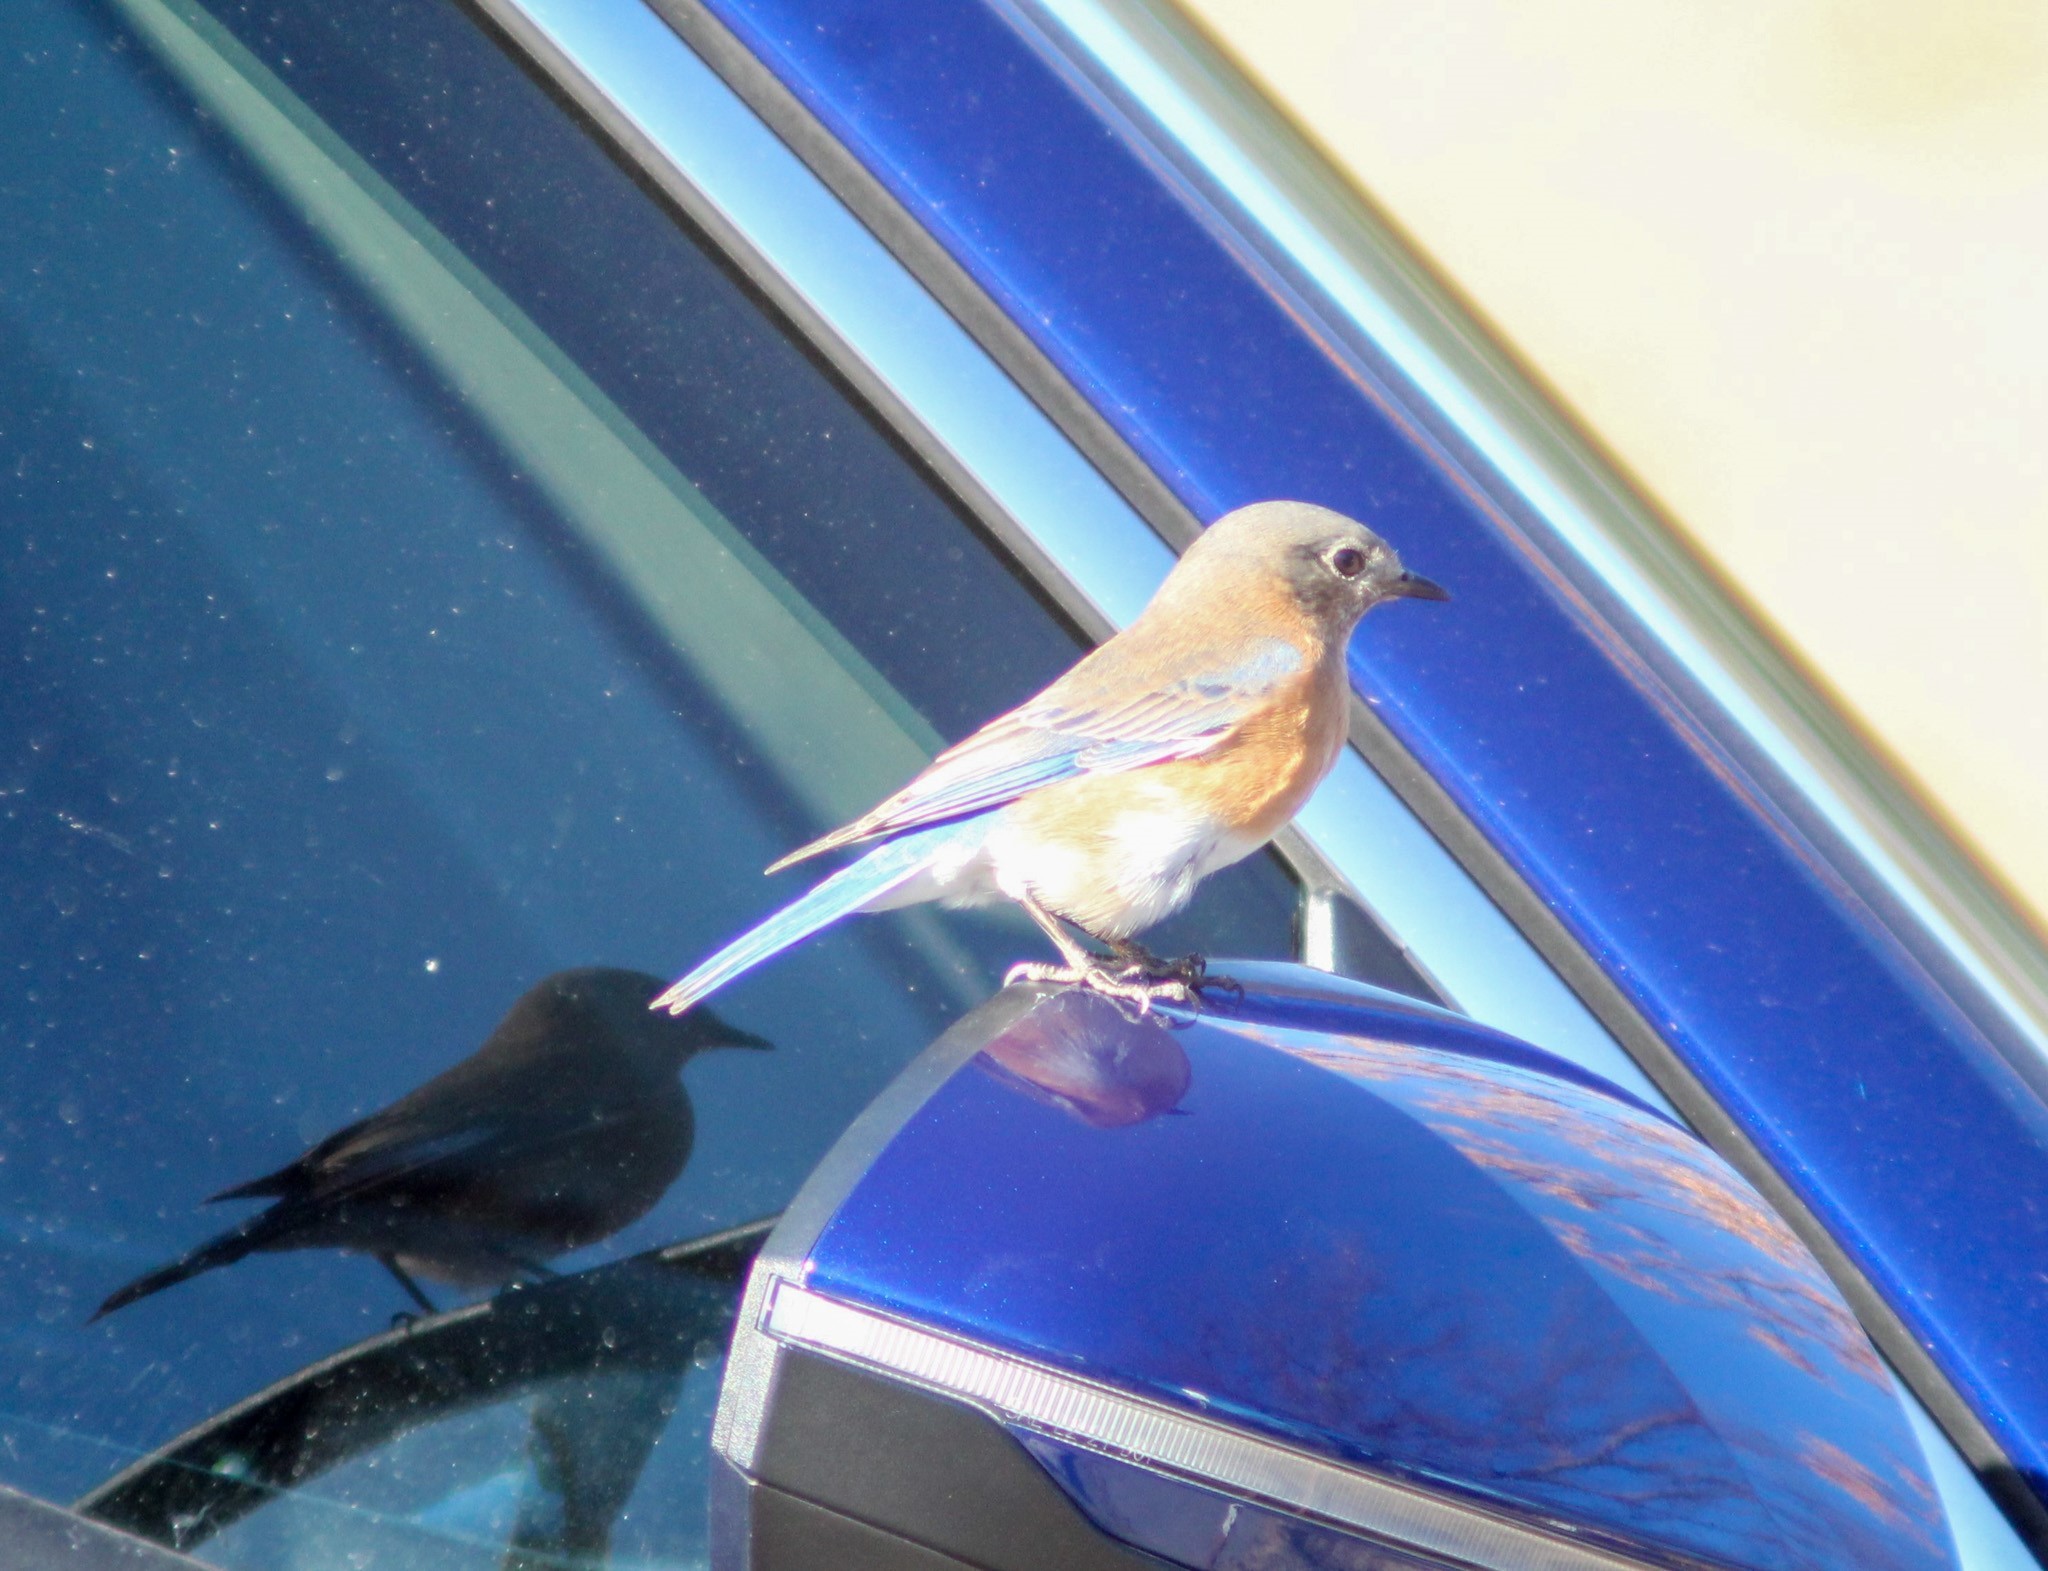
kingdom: Animalia
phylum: Chordata
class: Aves
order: Passeriformes
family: Turdidae
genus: Sialia
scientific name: Sialia sialis
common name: Eastern bluebird
